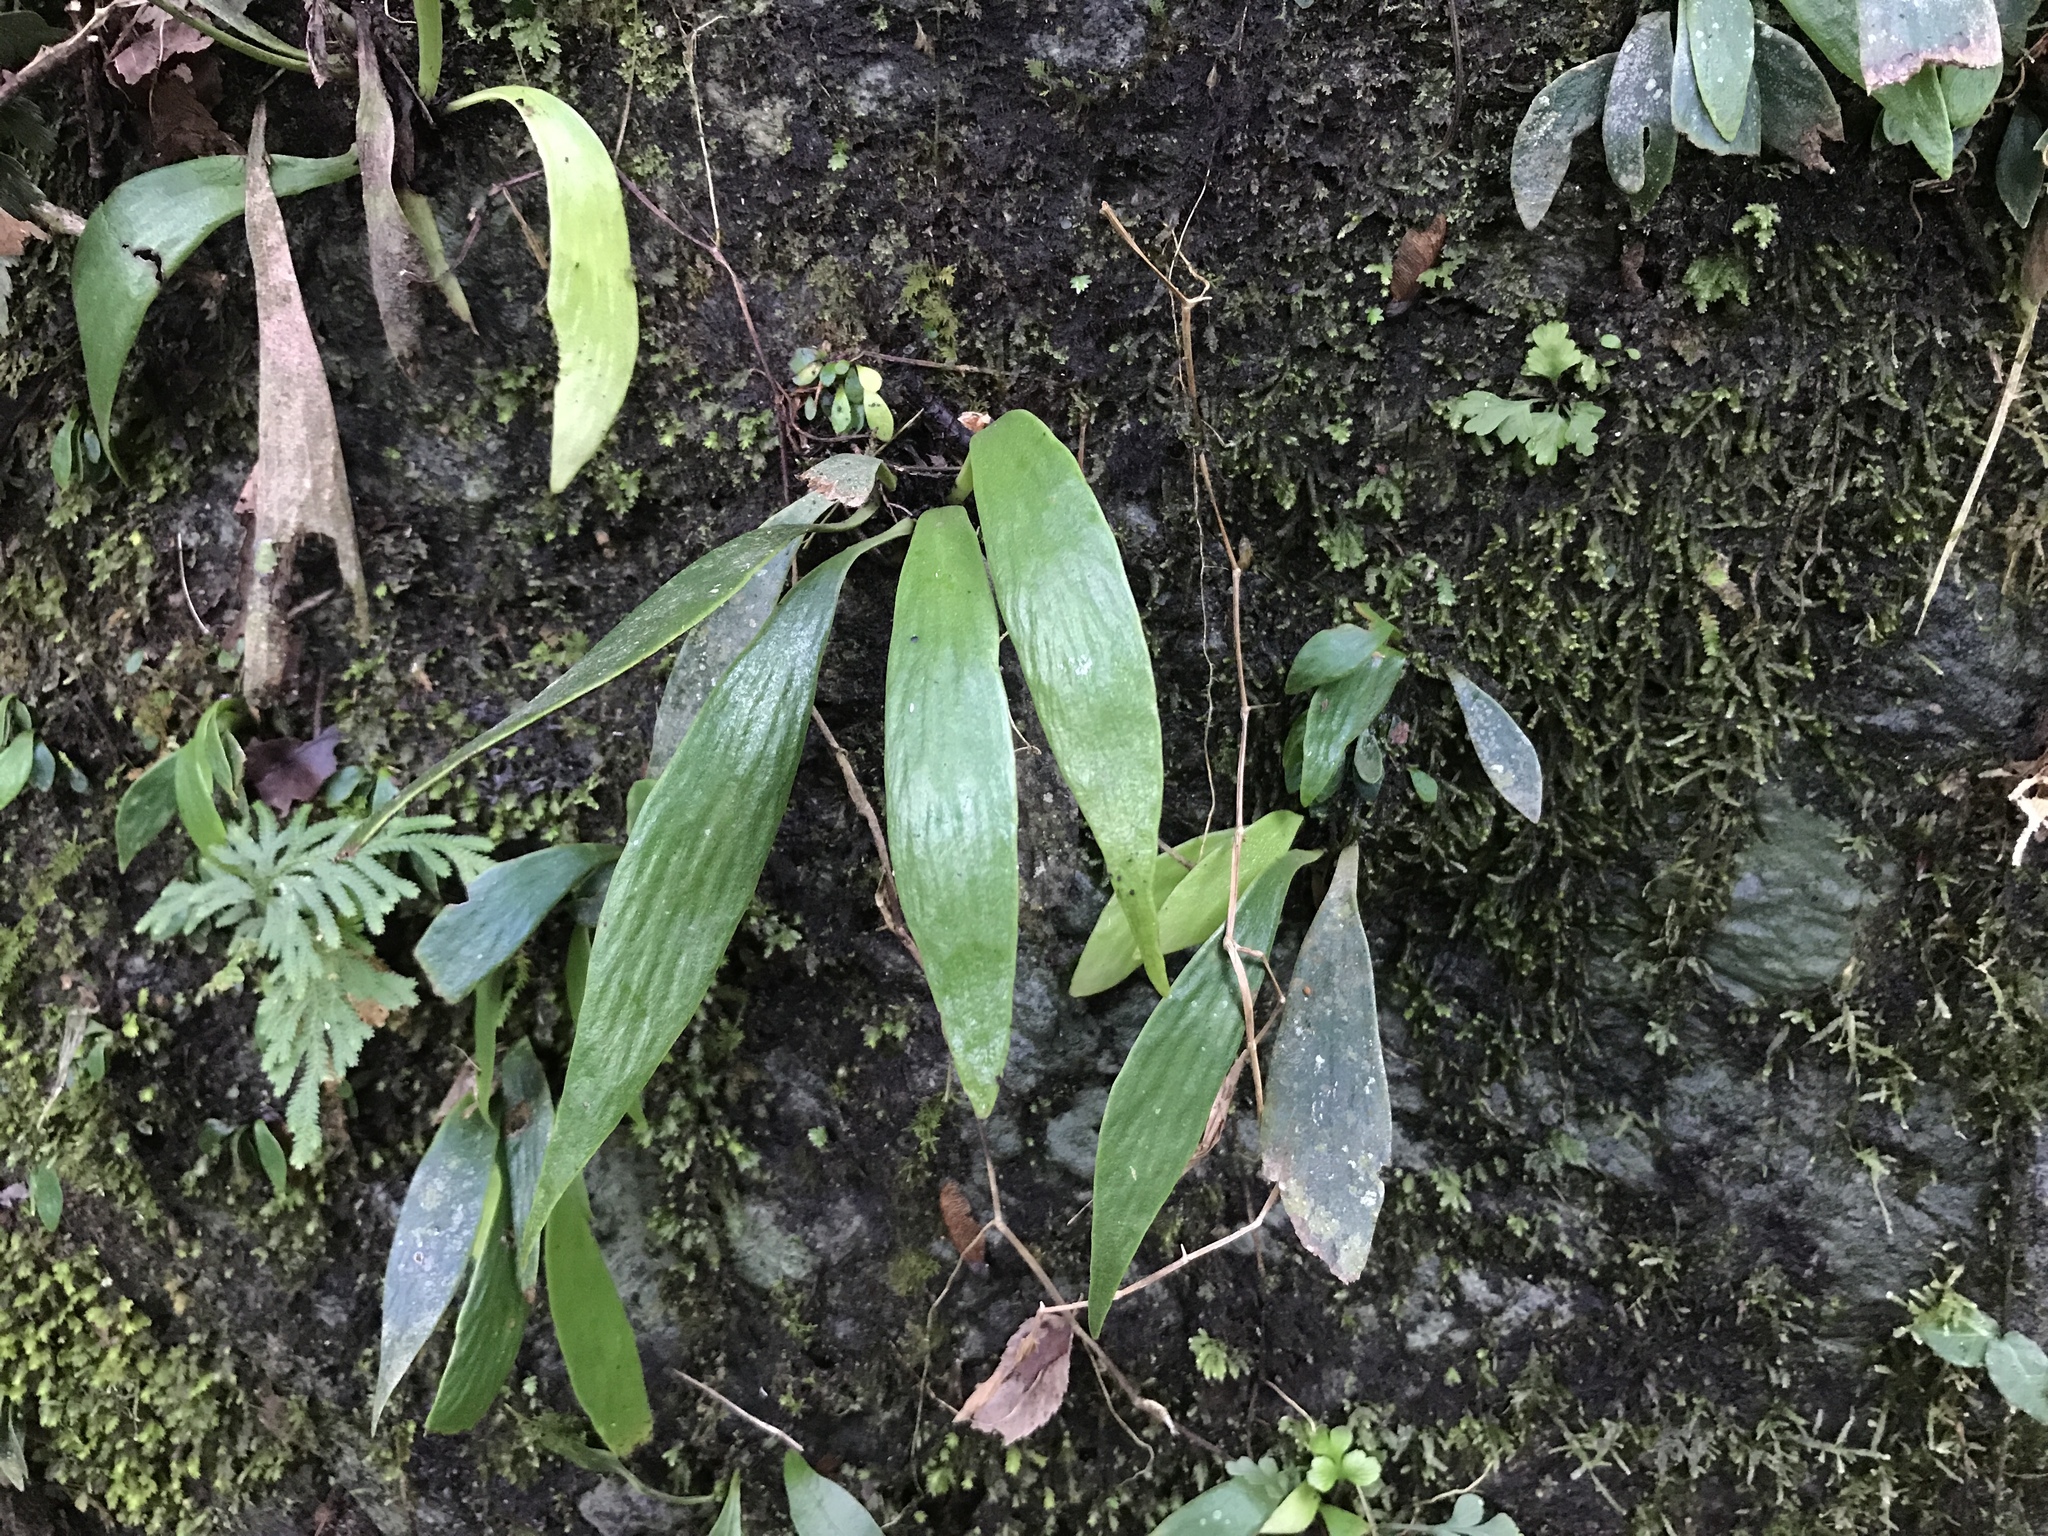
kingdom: Plantae
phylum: Tracheophyta
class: Polypodiopsida
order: Polypodiales
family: Pteridaceae
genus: Antrophyum
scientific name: Antrophyum formosanum
